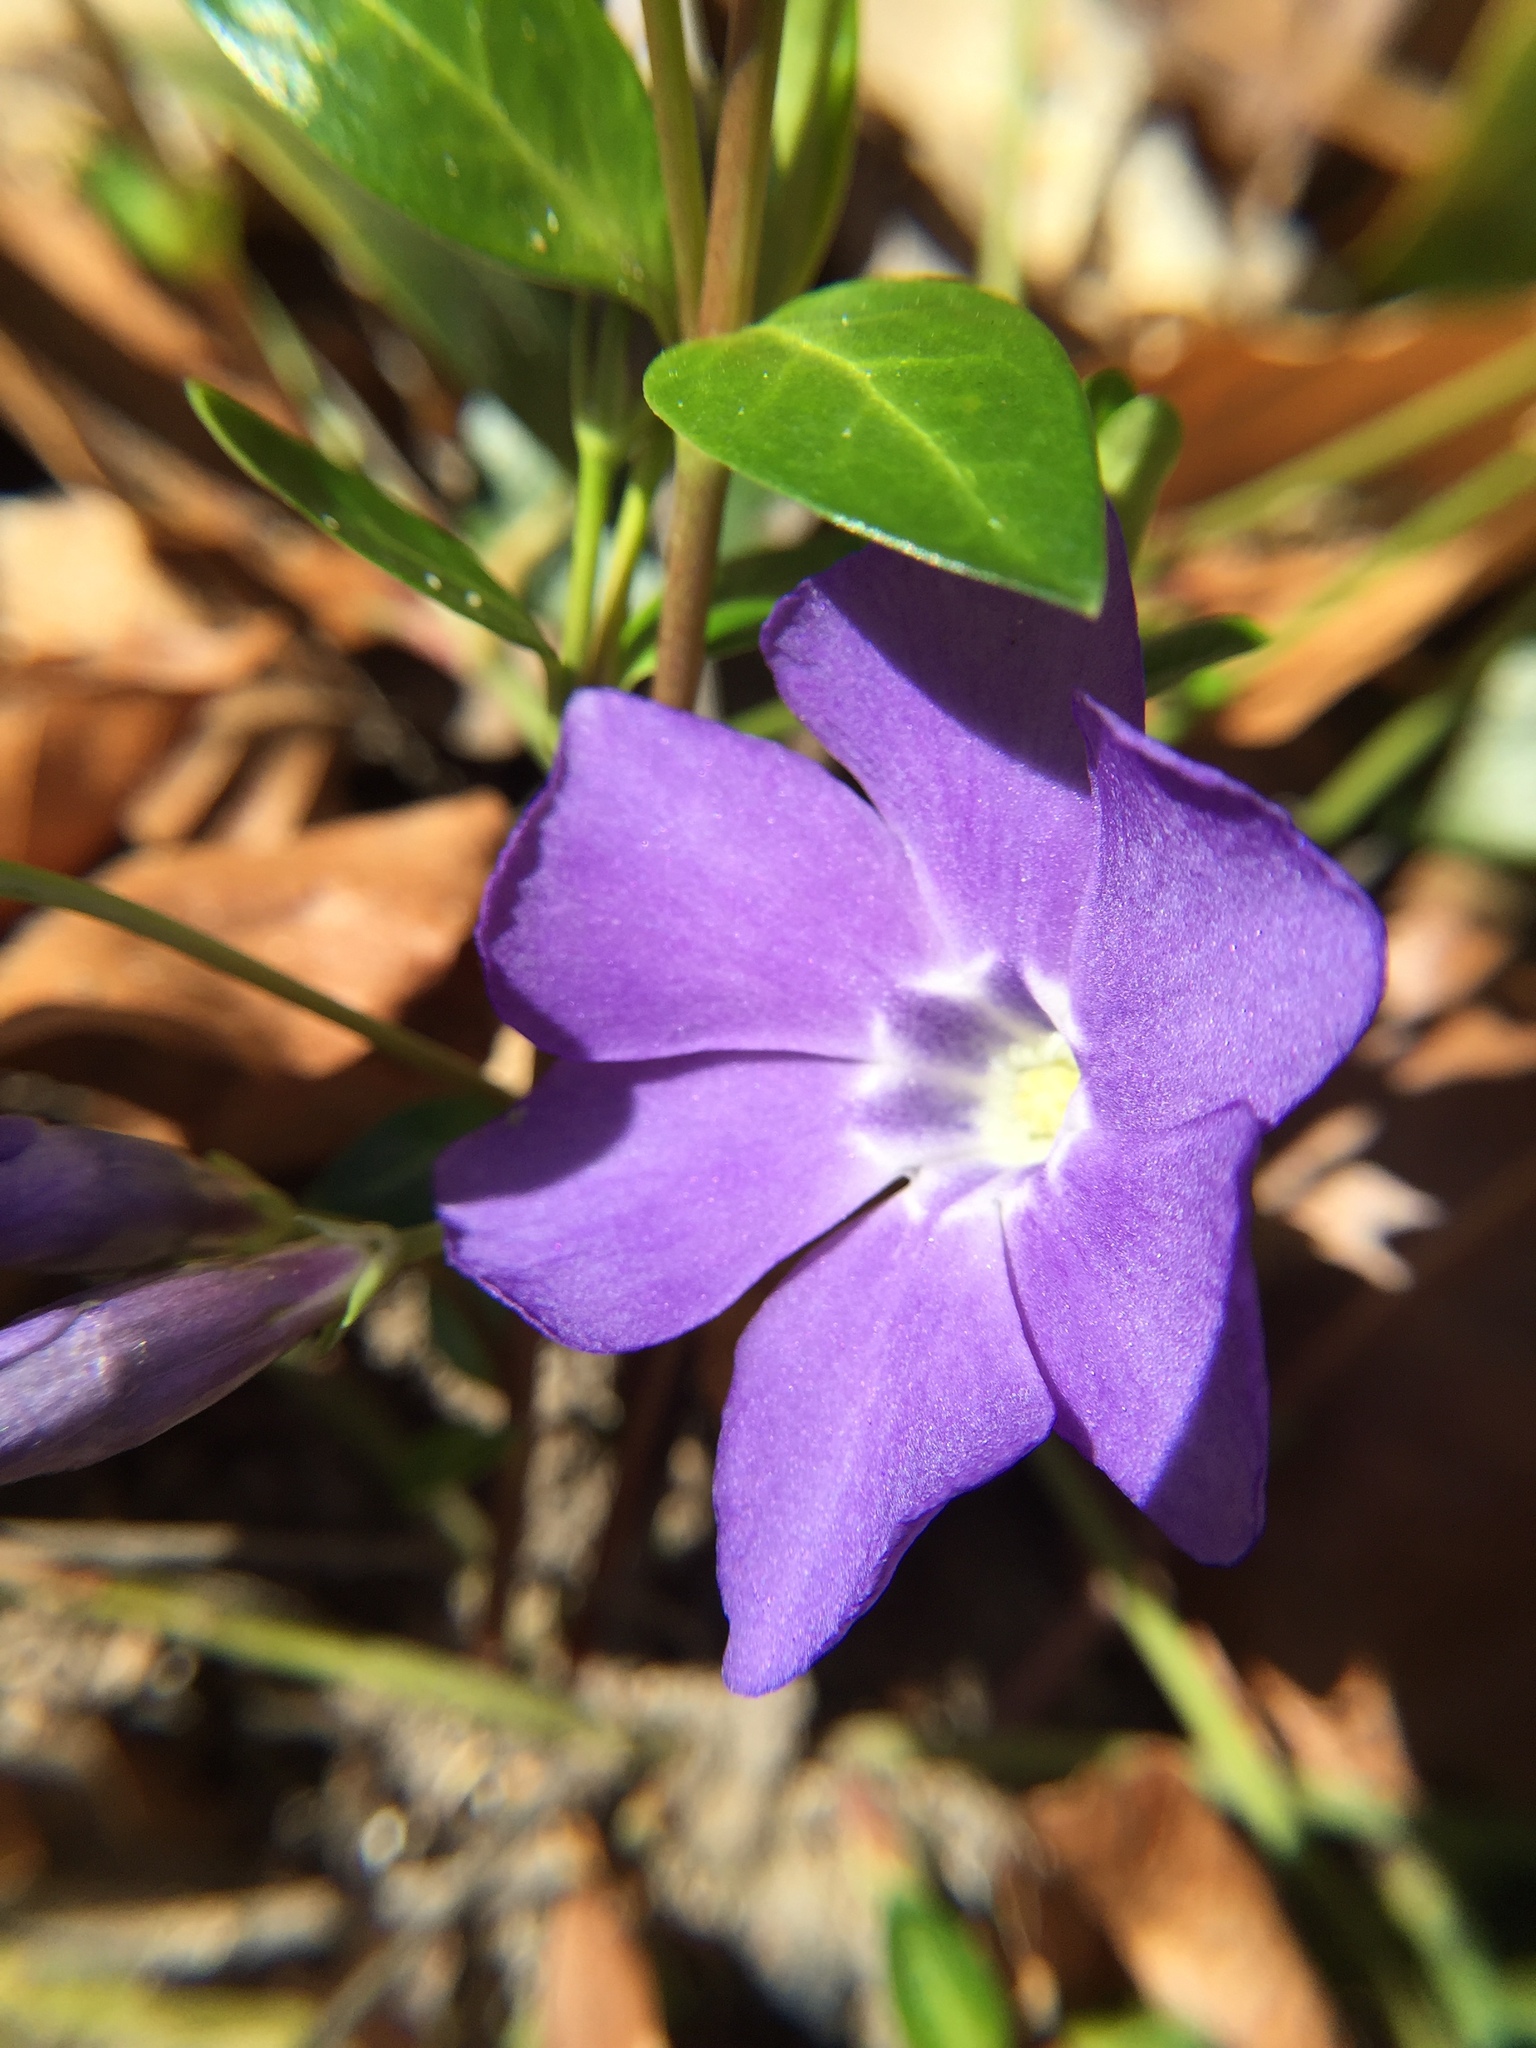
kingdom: Plantae
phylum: Tracheophyta
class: Magnoliopsida
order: Gentianales
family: Apocynaceae
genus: Vinca
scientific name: Vinca minor
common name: Lesser periwinkle
